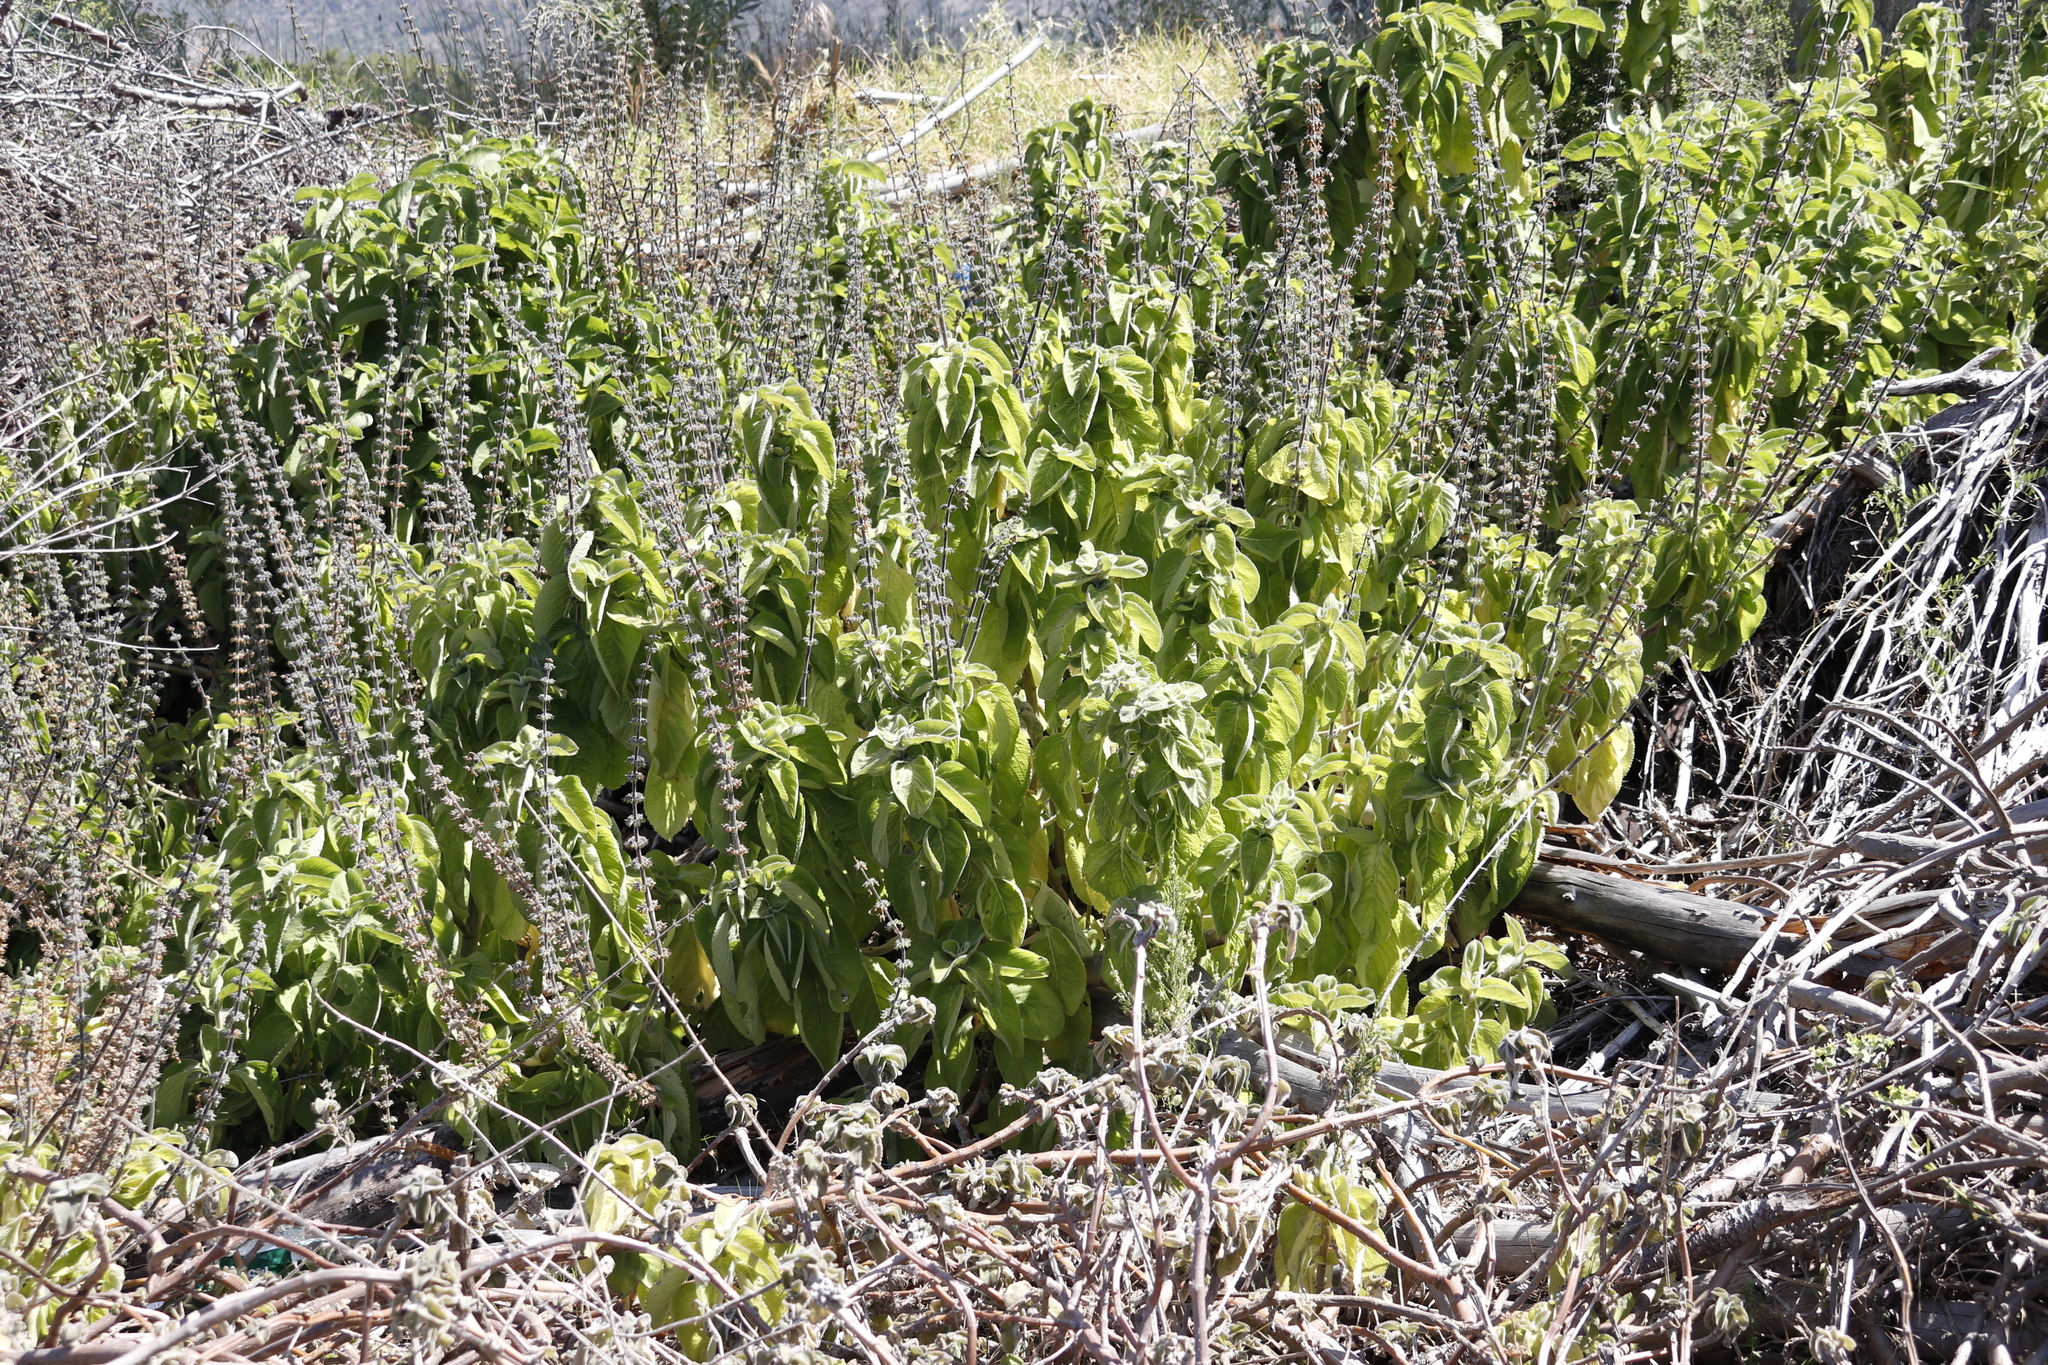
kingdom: Plantae
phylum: Tracheophyta
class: Magnoliopsida
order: Lamiales
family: Lamiaceae
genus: Coleus
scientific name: Coleus barbatus
